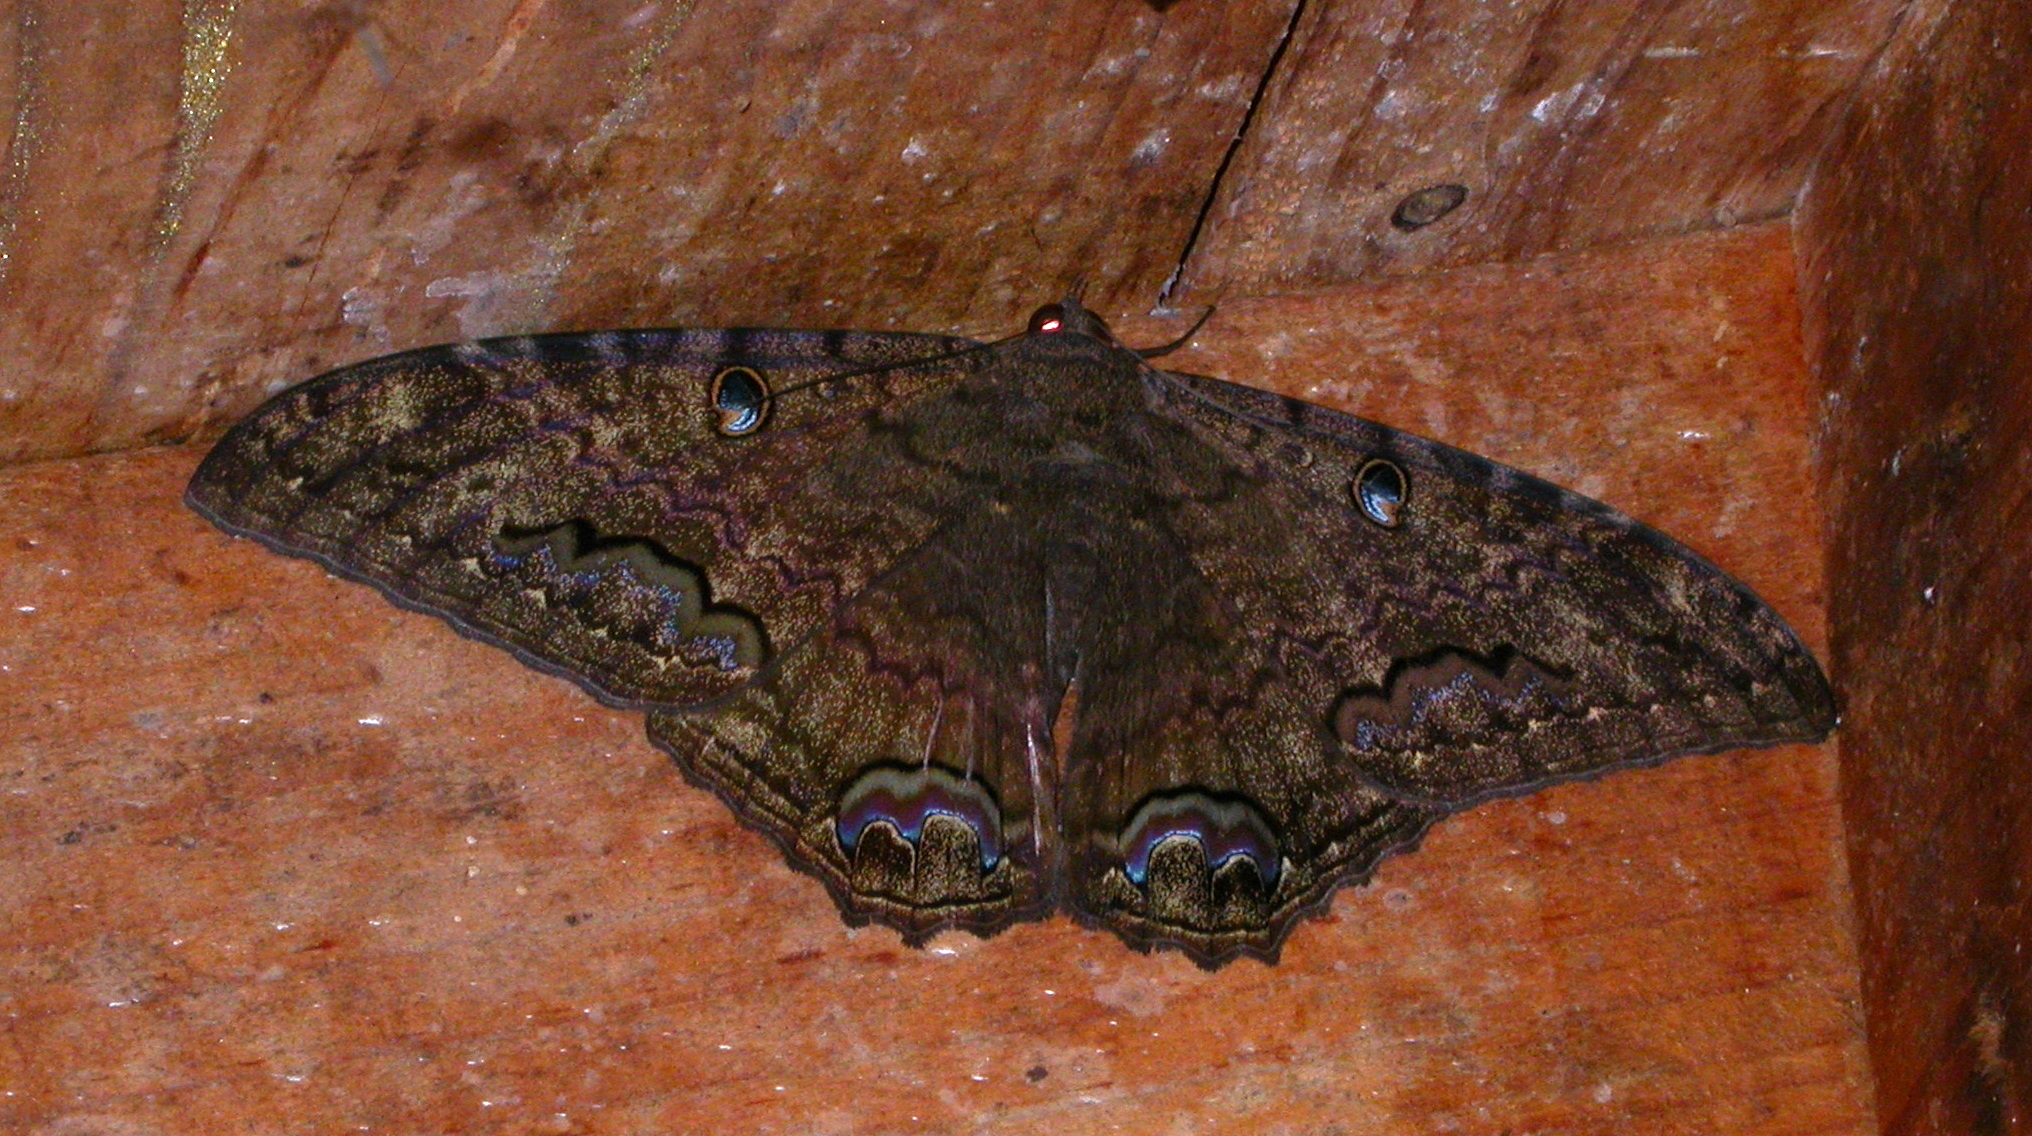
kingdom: Animalia
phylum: Arthropoda
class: Insecta
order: Lepidoptera
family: Erebidae
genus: Ascalapha
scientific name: Ascalapha odorata
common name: Black witch
